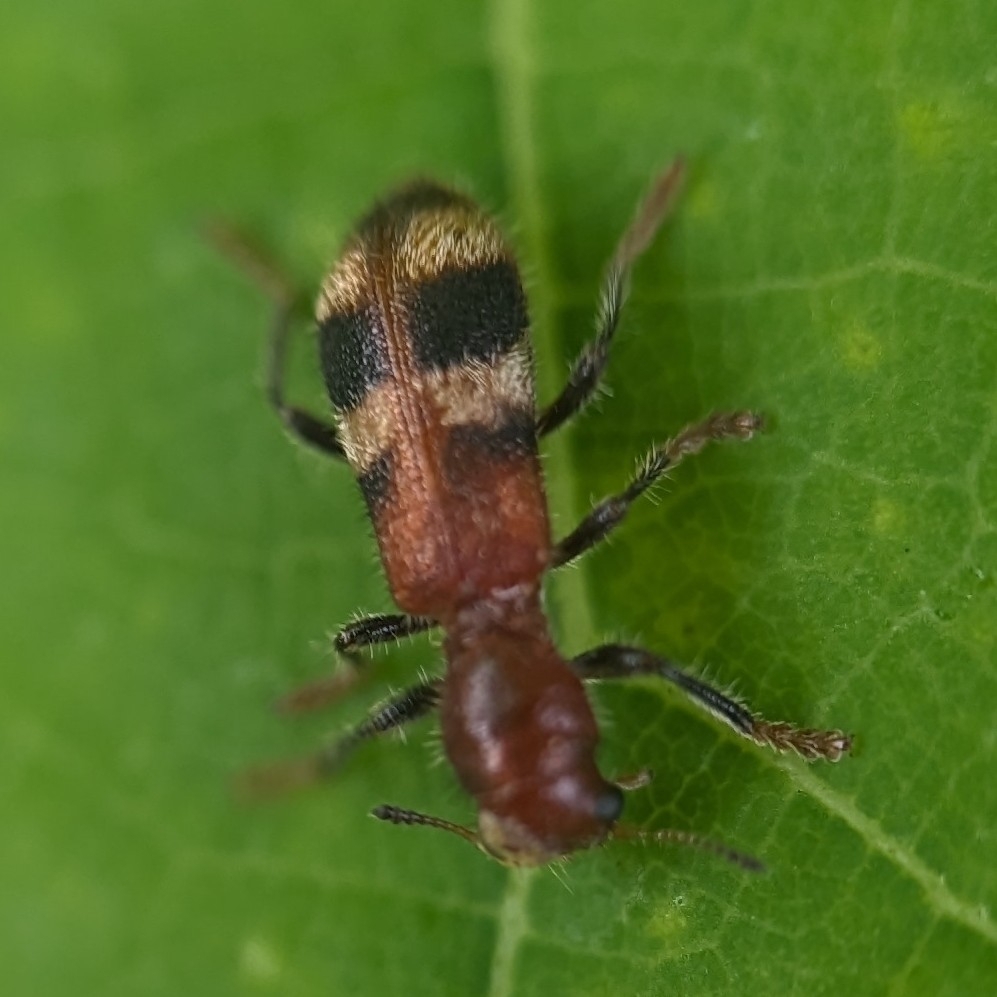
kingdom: Animalia
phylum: Arthropoda
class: Insecta
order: Coleoptera
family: Cleridae
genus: Enoclerus
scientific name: Enoclerus rosmarus
